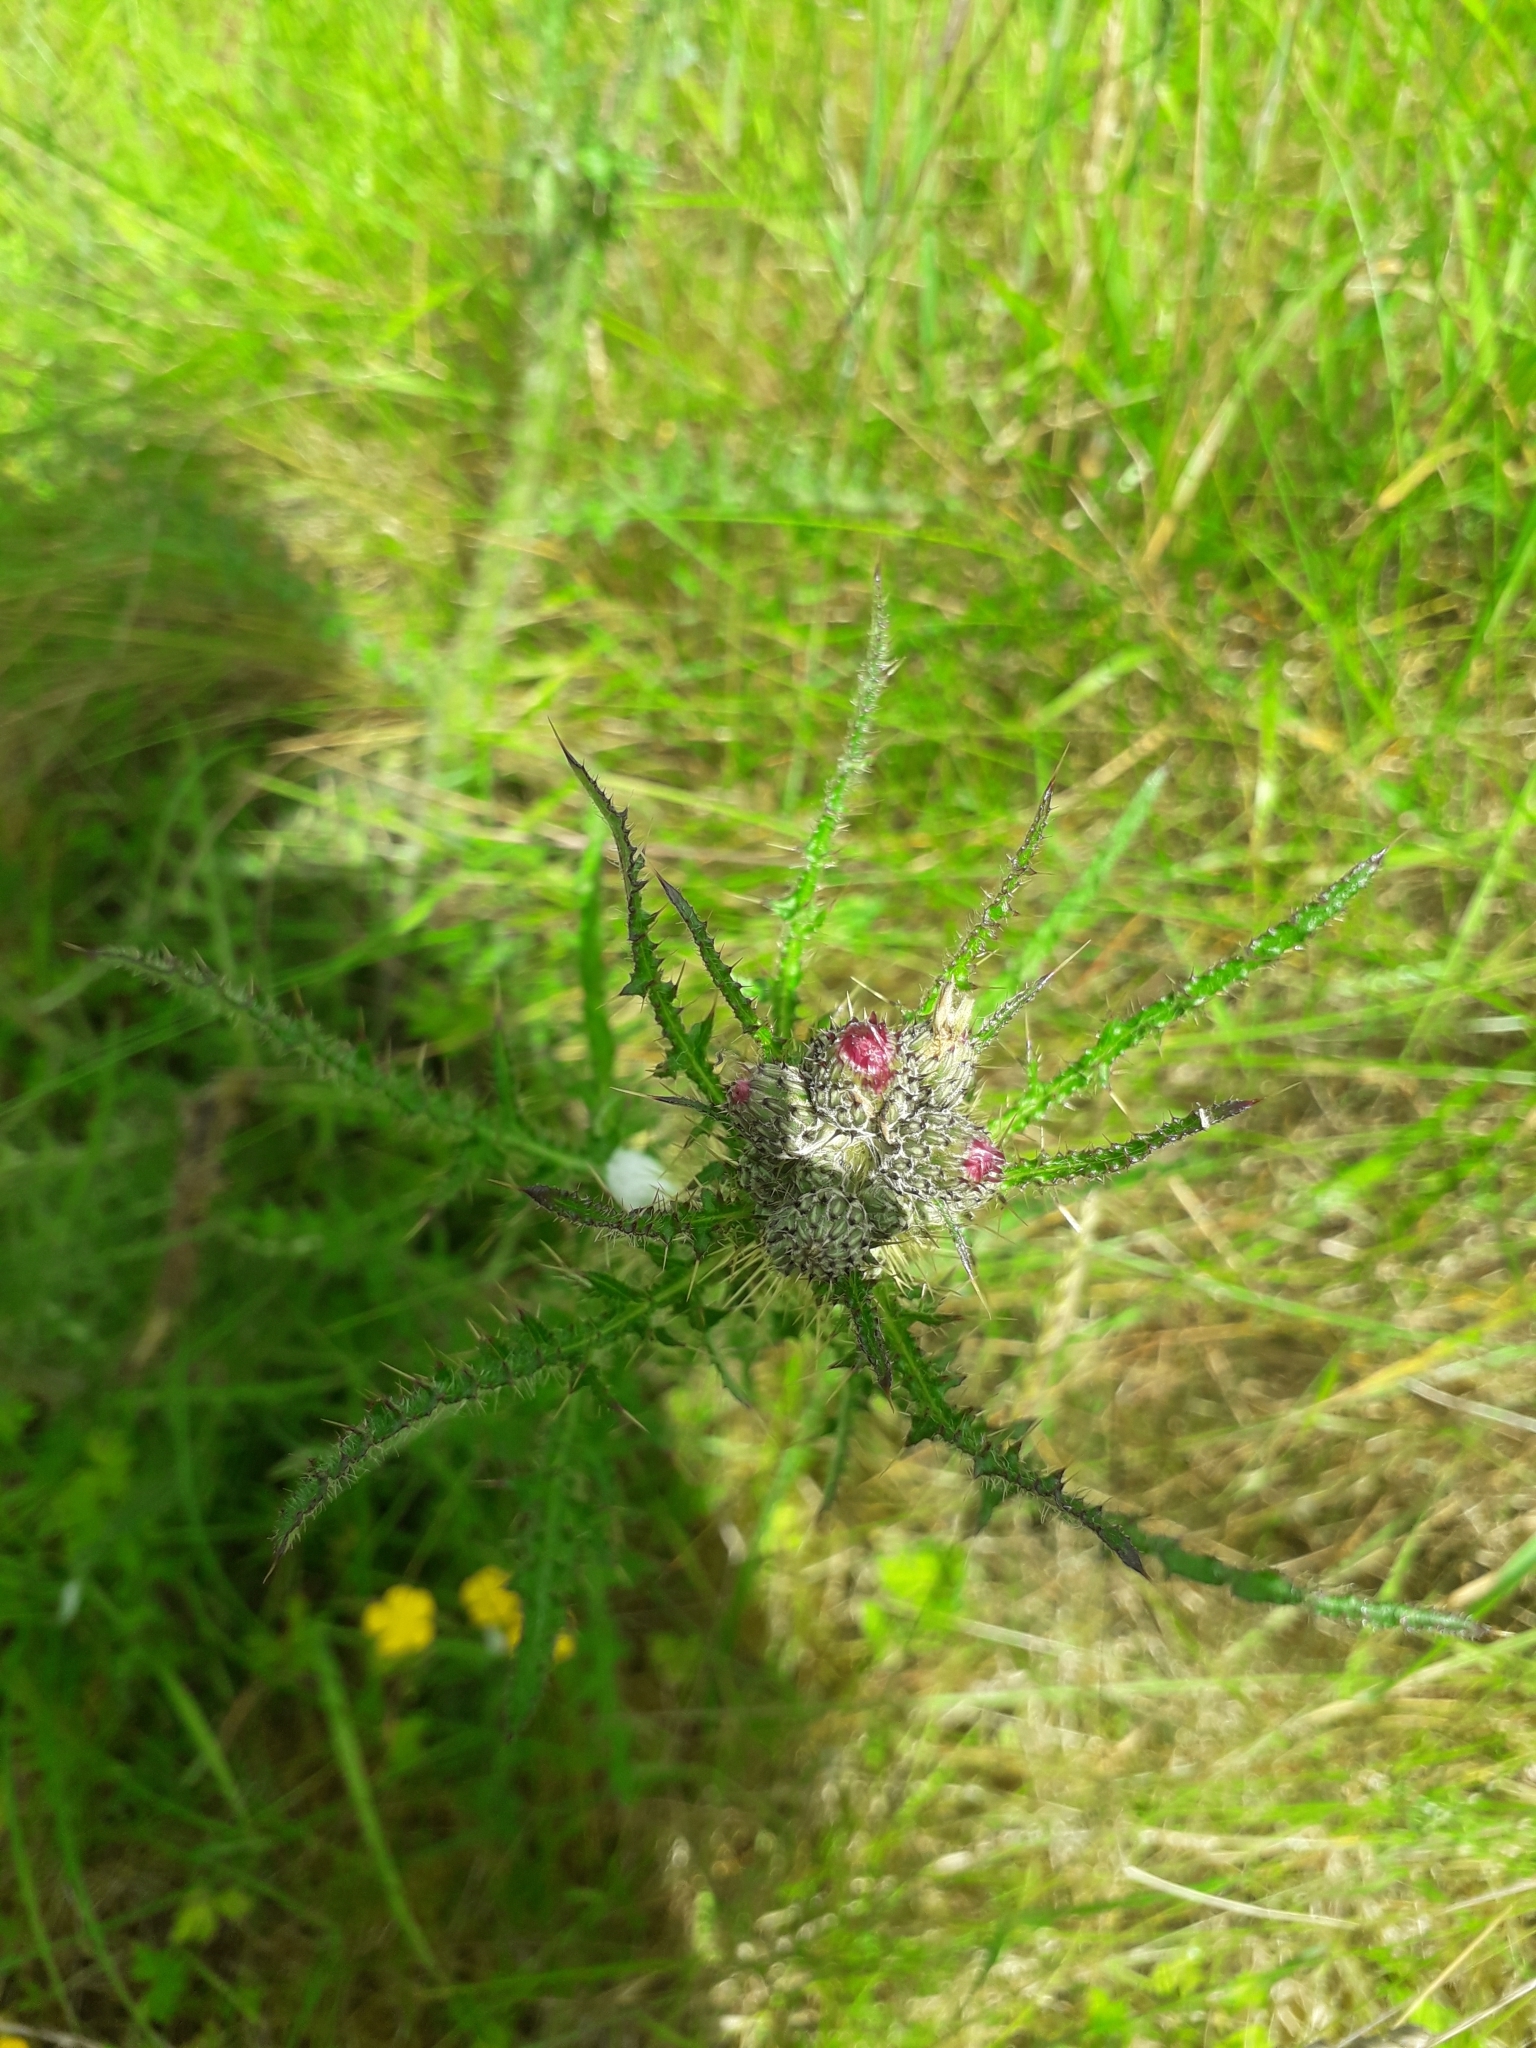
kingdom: Plantae
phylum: Tracheophyta
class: Magnoliopsida
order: Asterales
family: Asteraceae
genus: Cirsium
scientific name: Cirsium palustre
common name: Marsh thistle
